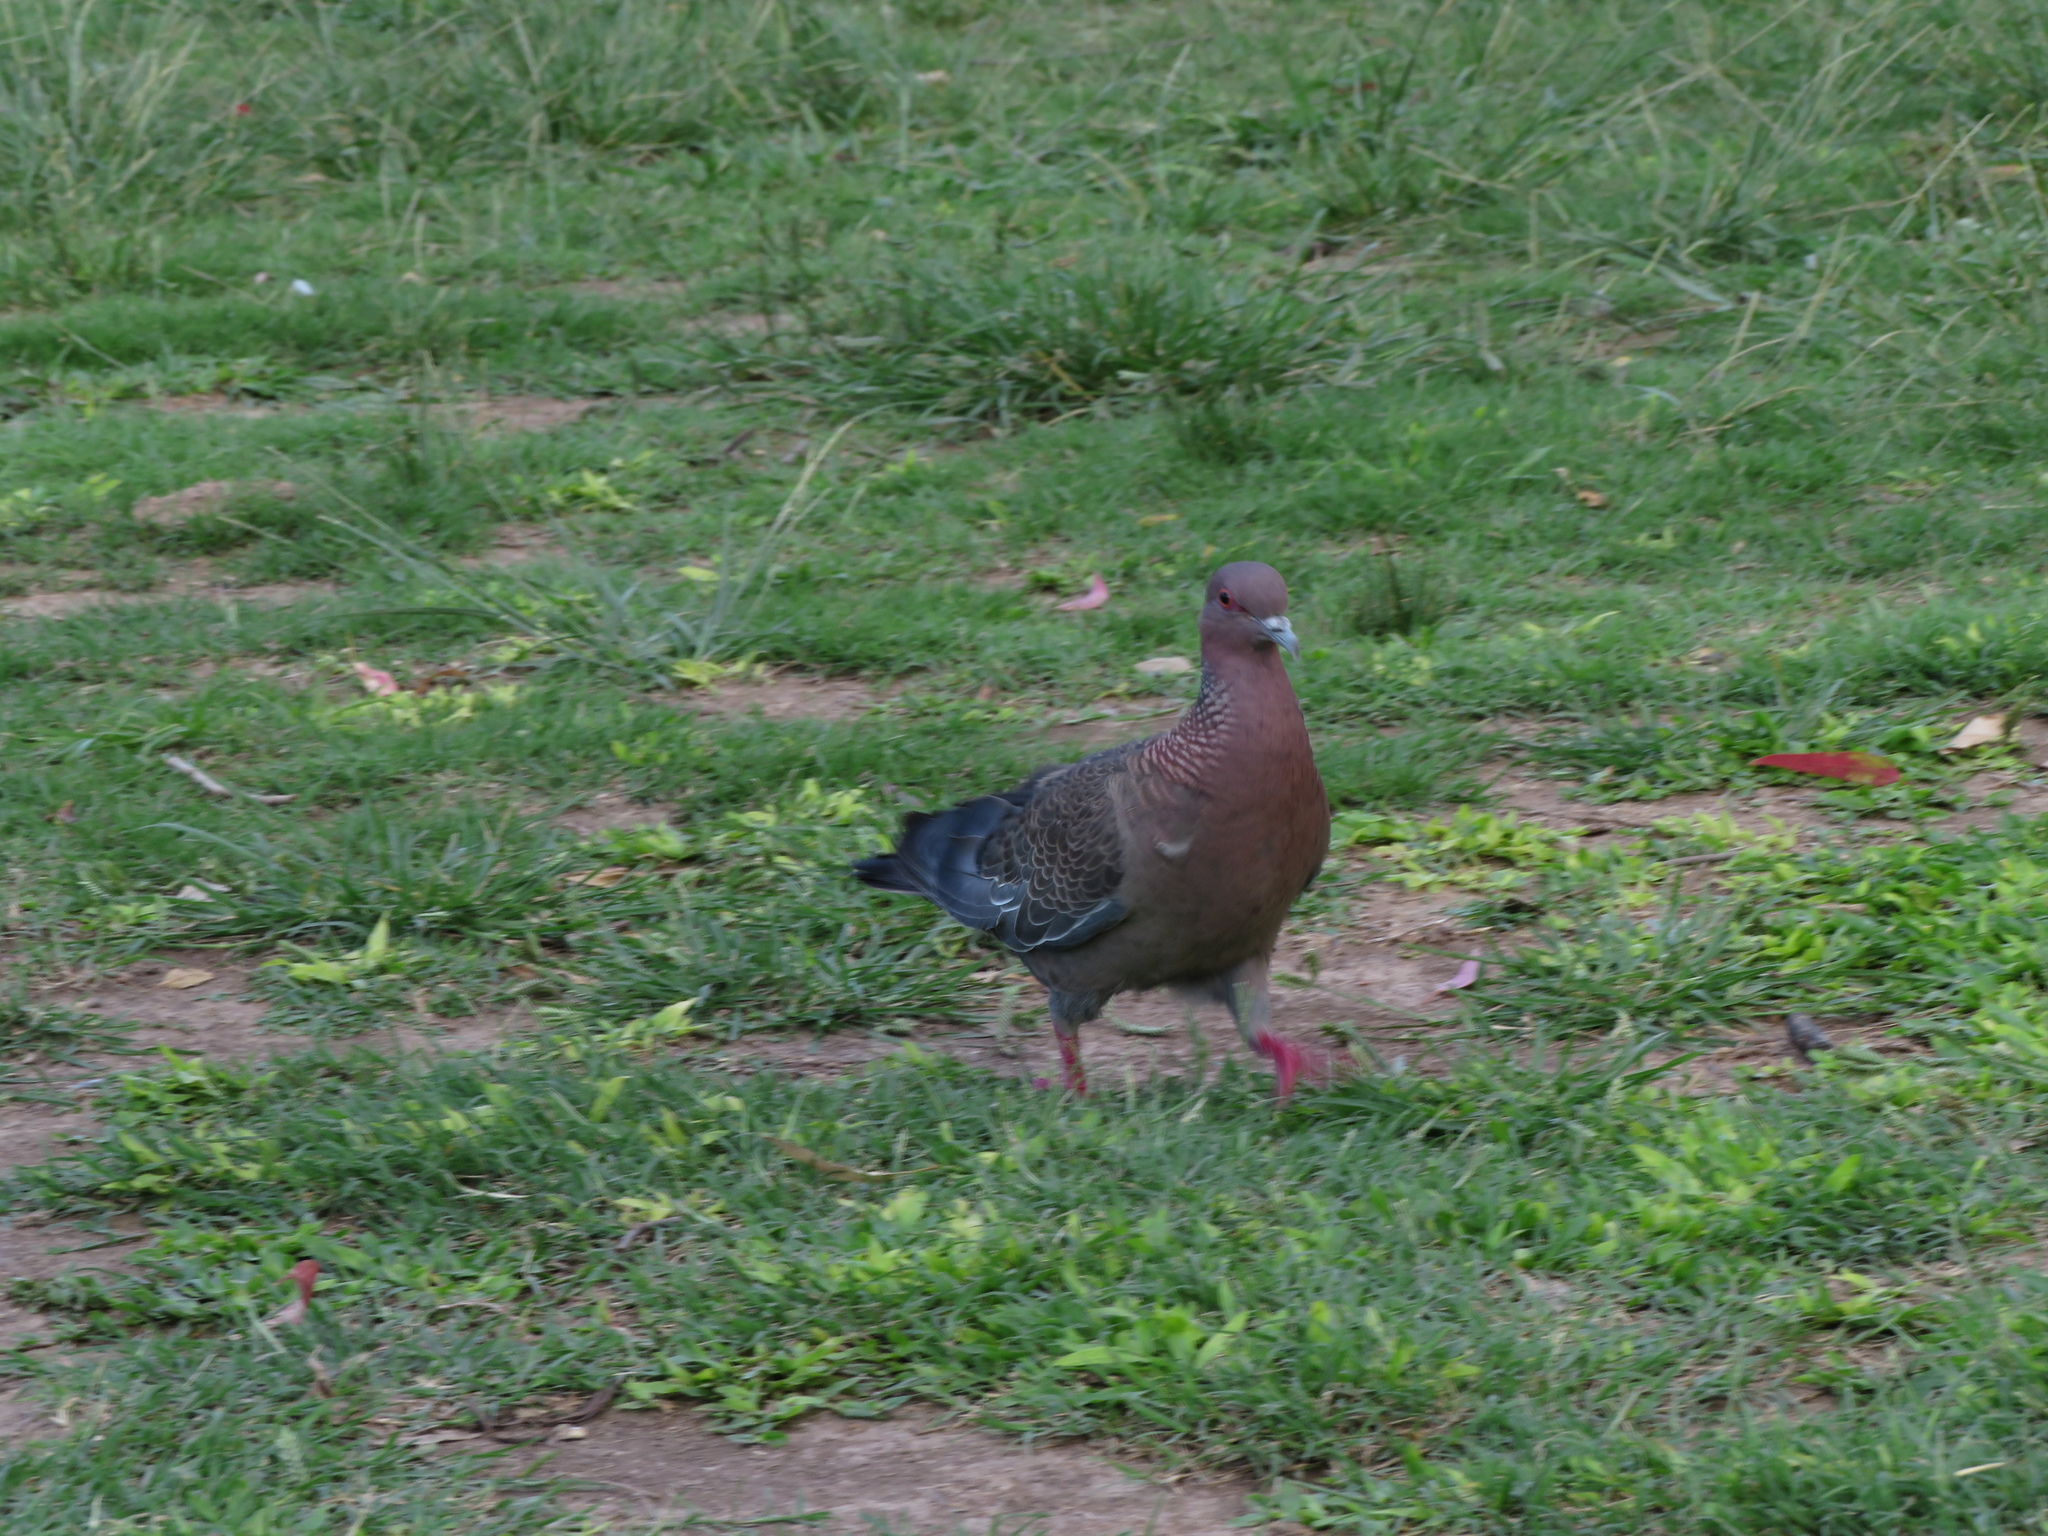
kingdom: Animalia
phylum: Chordata
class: Aves
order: Columbiformes
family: Columbidae
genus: Patagioenas
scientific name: Patagioenas picazuro
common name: Picazuro pigeon
